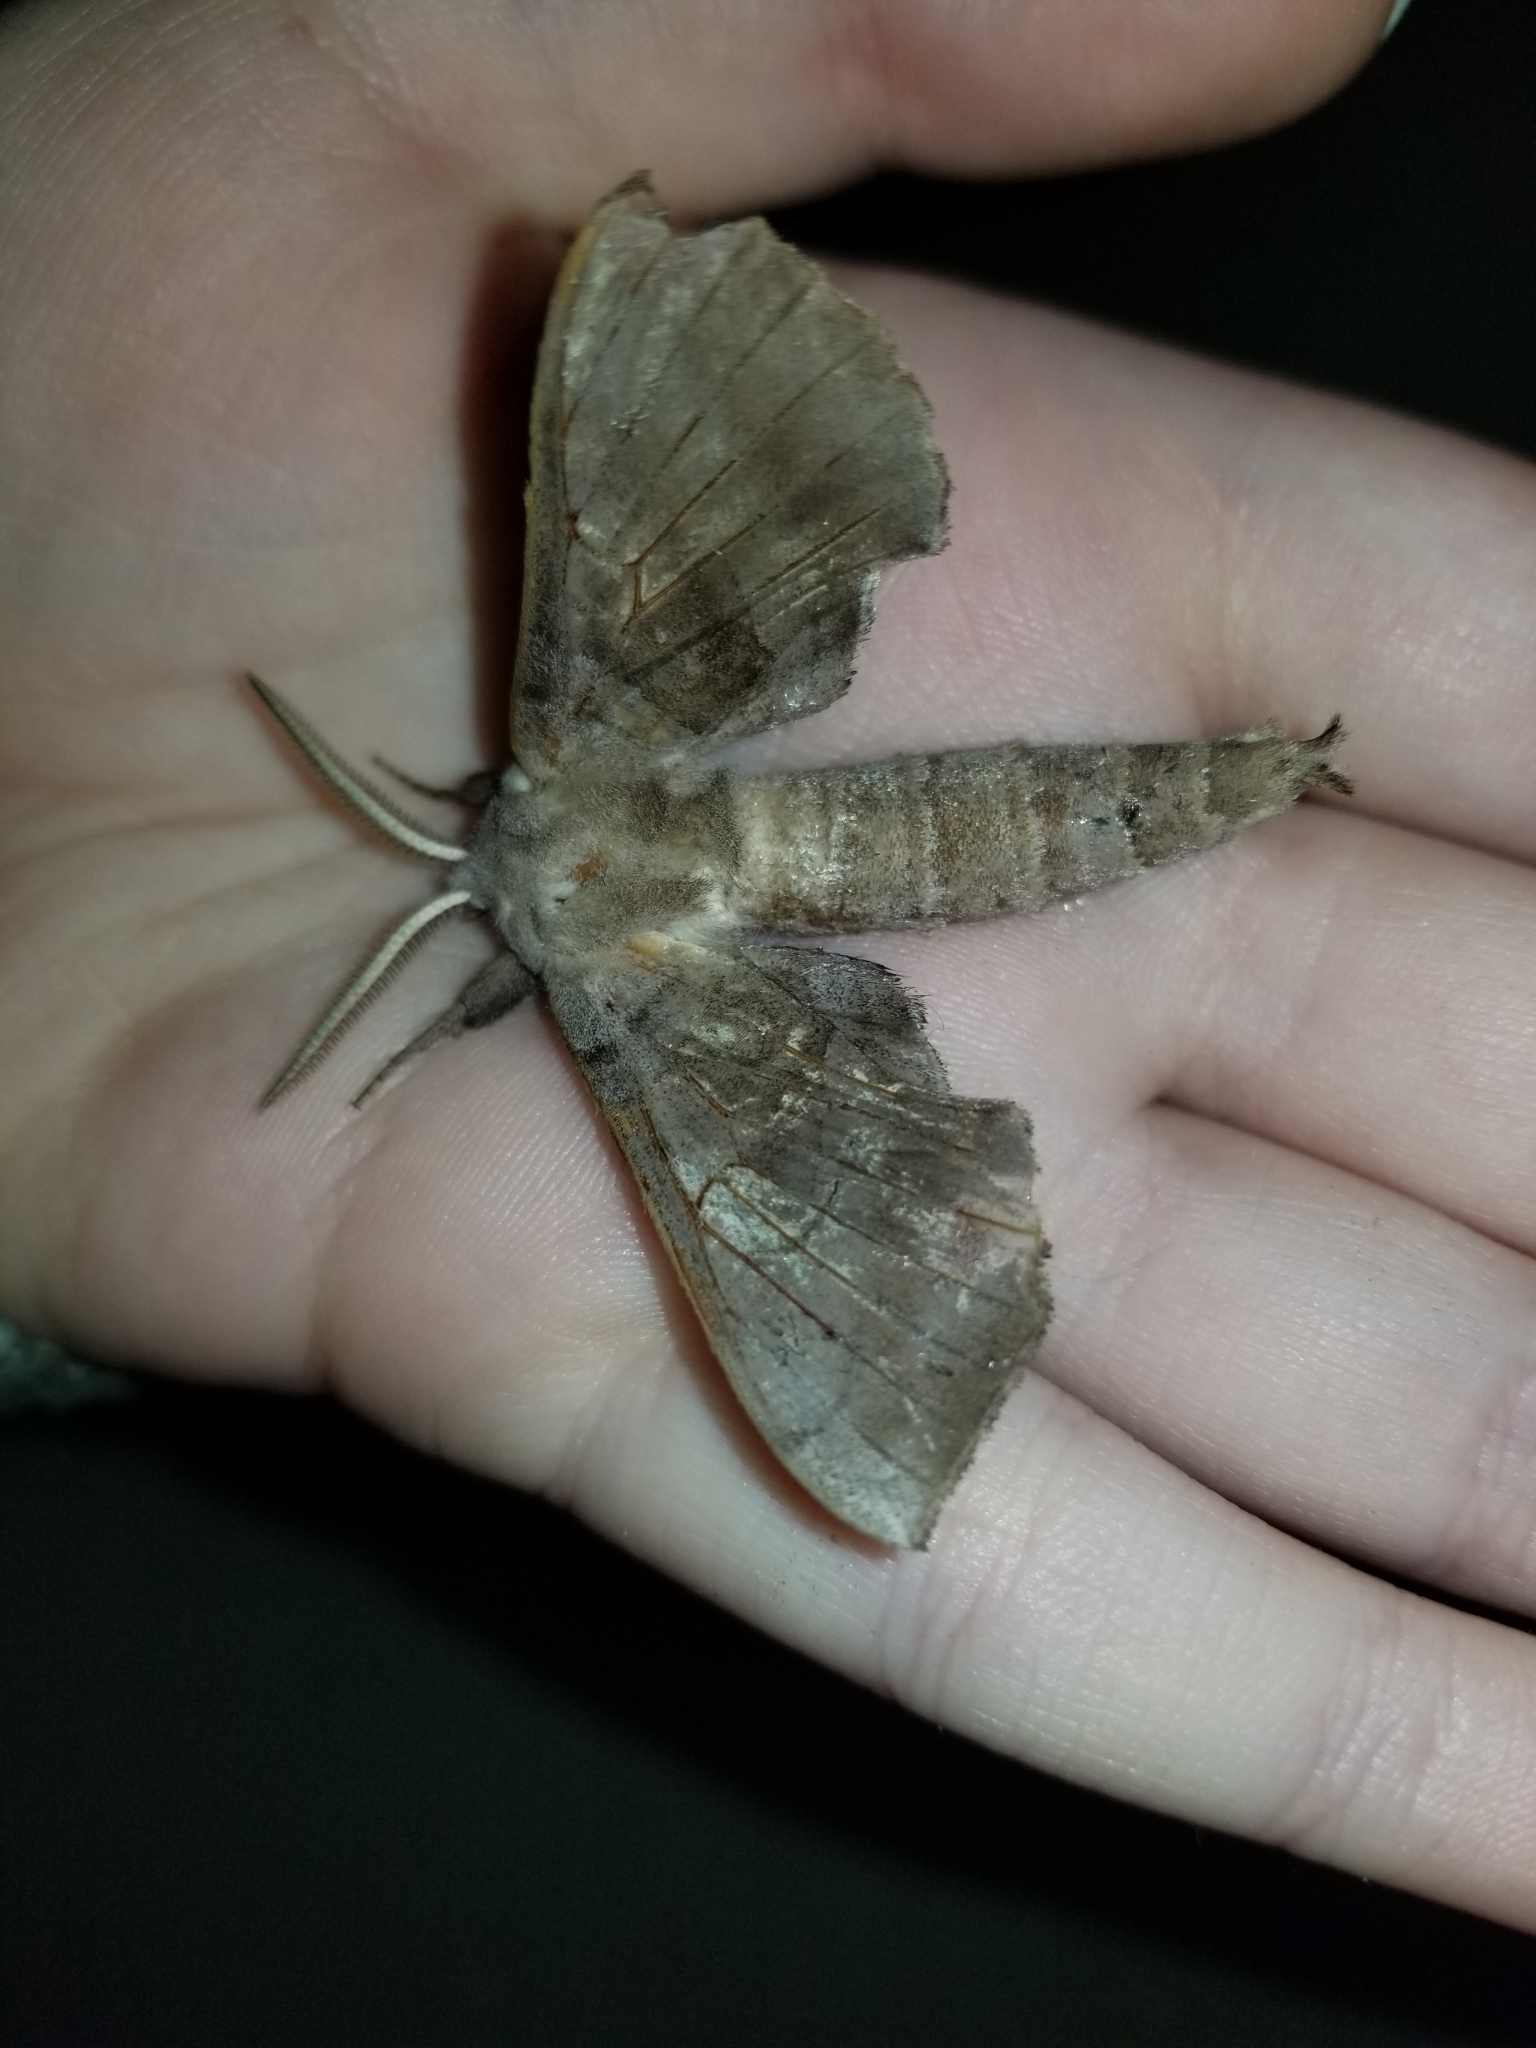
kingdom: Animalia
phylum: Arthropoda
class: Insecta
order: Lepidoptera
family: Sphingidae
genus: Amorpha
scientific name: Amorpha juglandis
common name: Walnut sphinx
